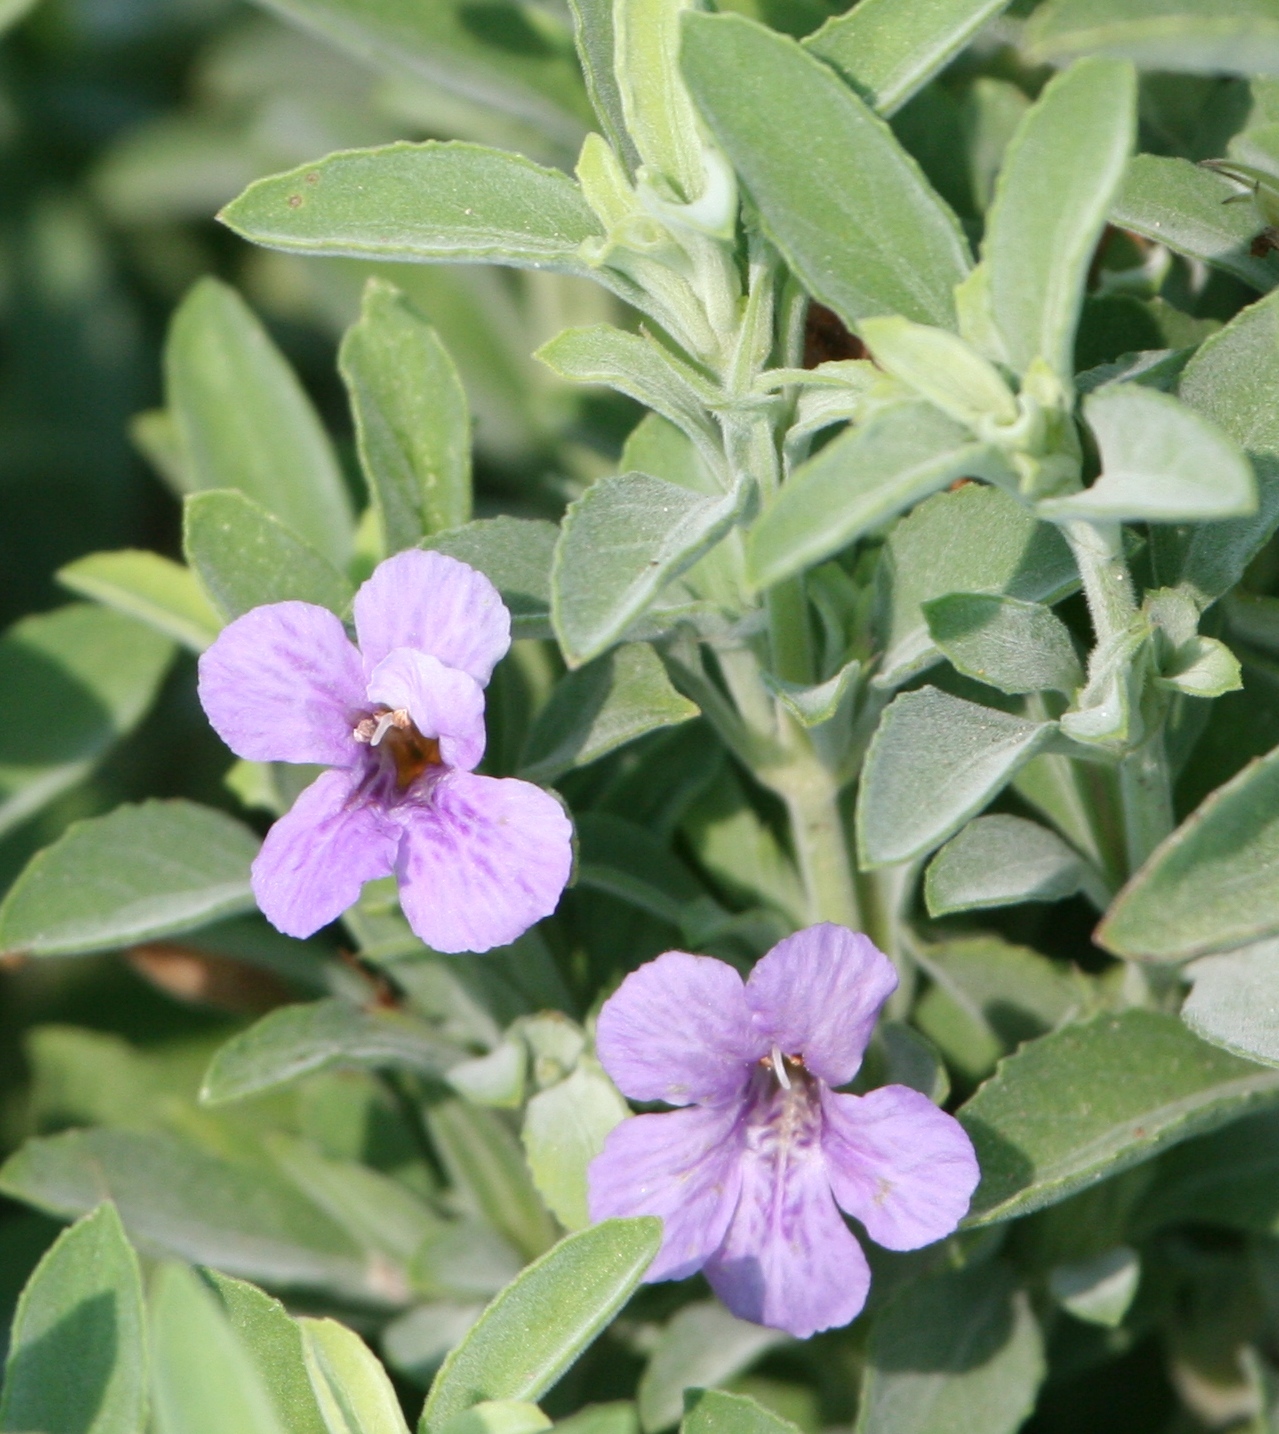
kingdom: Plantae
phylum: Tracheophyta
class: Magnoliopsida
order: Lamiales
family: Acanthaceae
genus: Dyschoriste
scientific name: Dyschoriste crenulata
